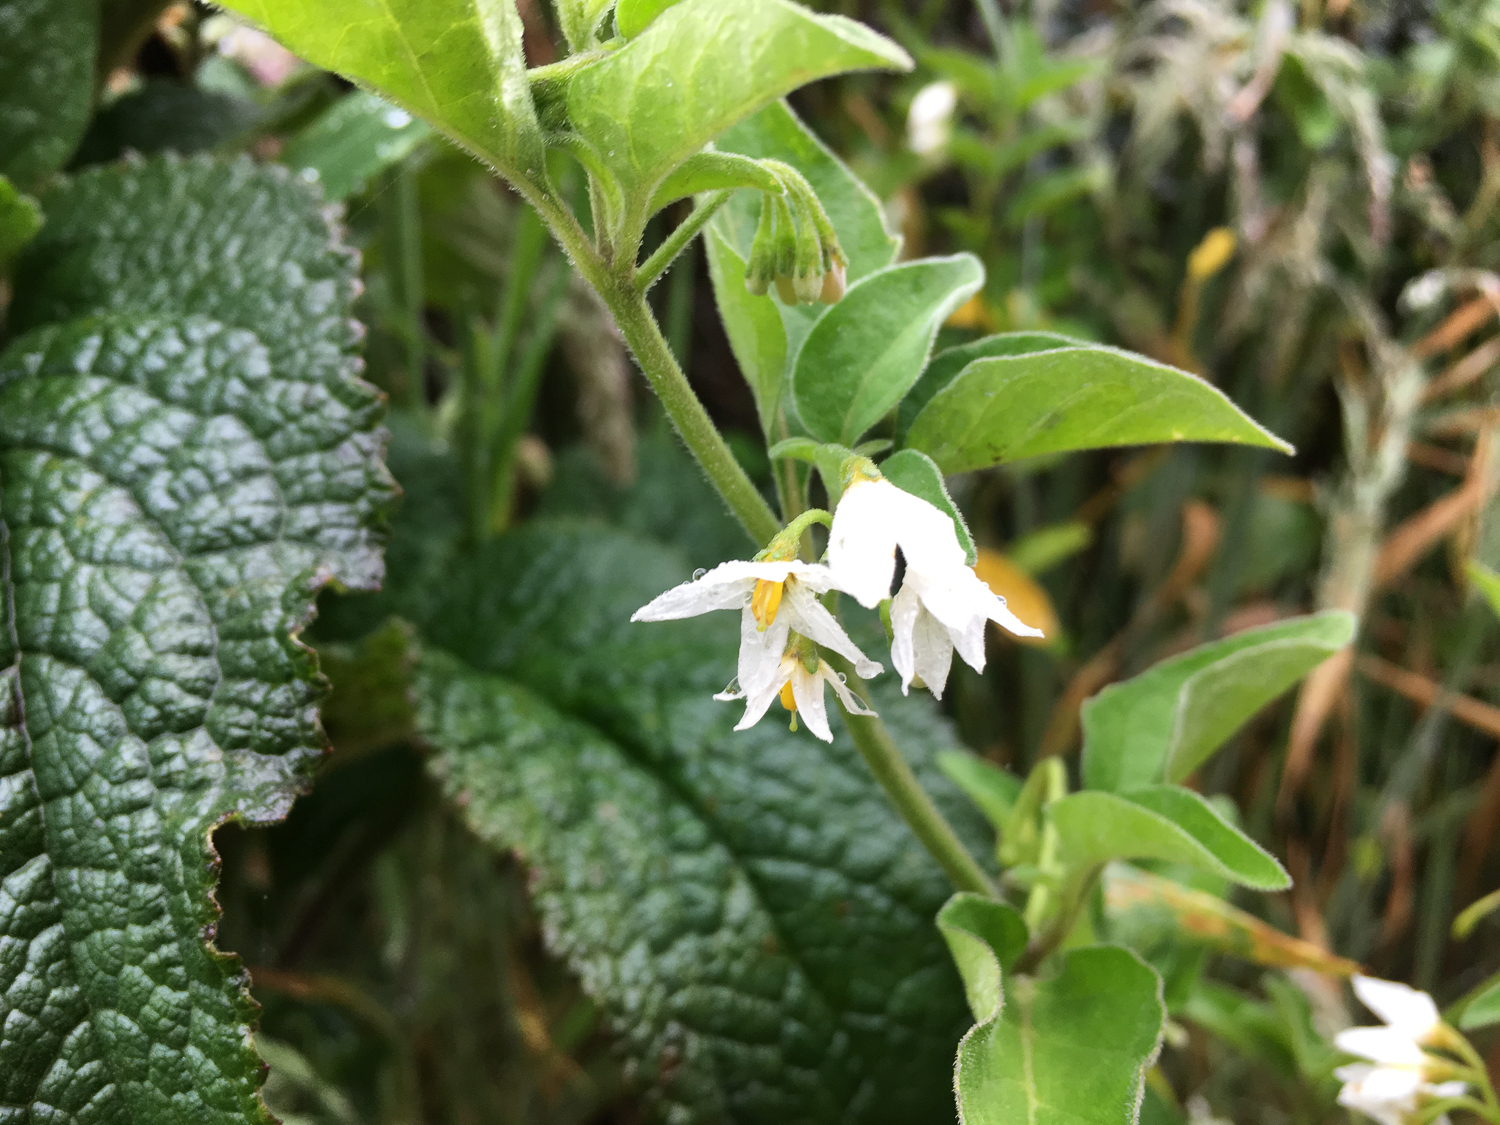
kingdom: Plantae
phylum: Tracheophyta
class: Magnoliopsida
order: Solanales
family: Solanaceae
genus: Solanum
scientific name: Solanum chenopodioides
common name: Tall nightshade
